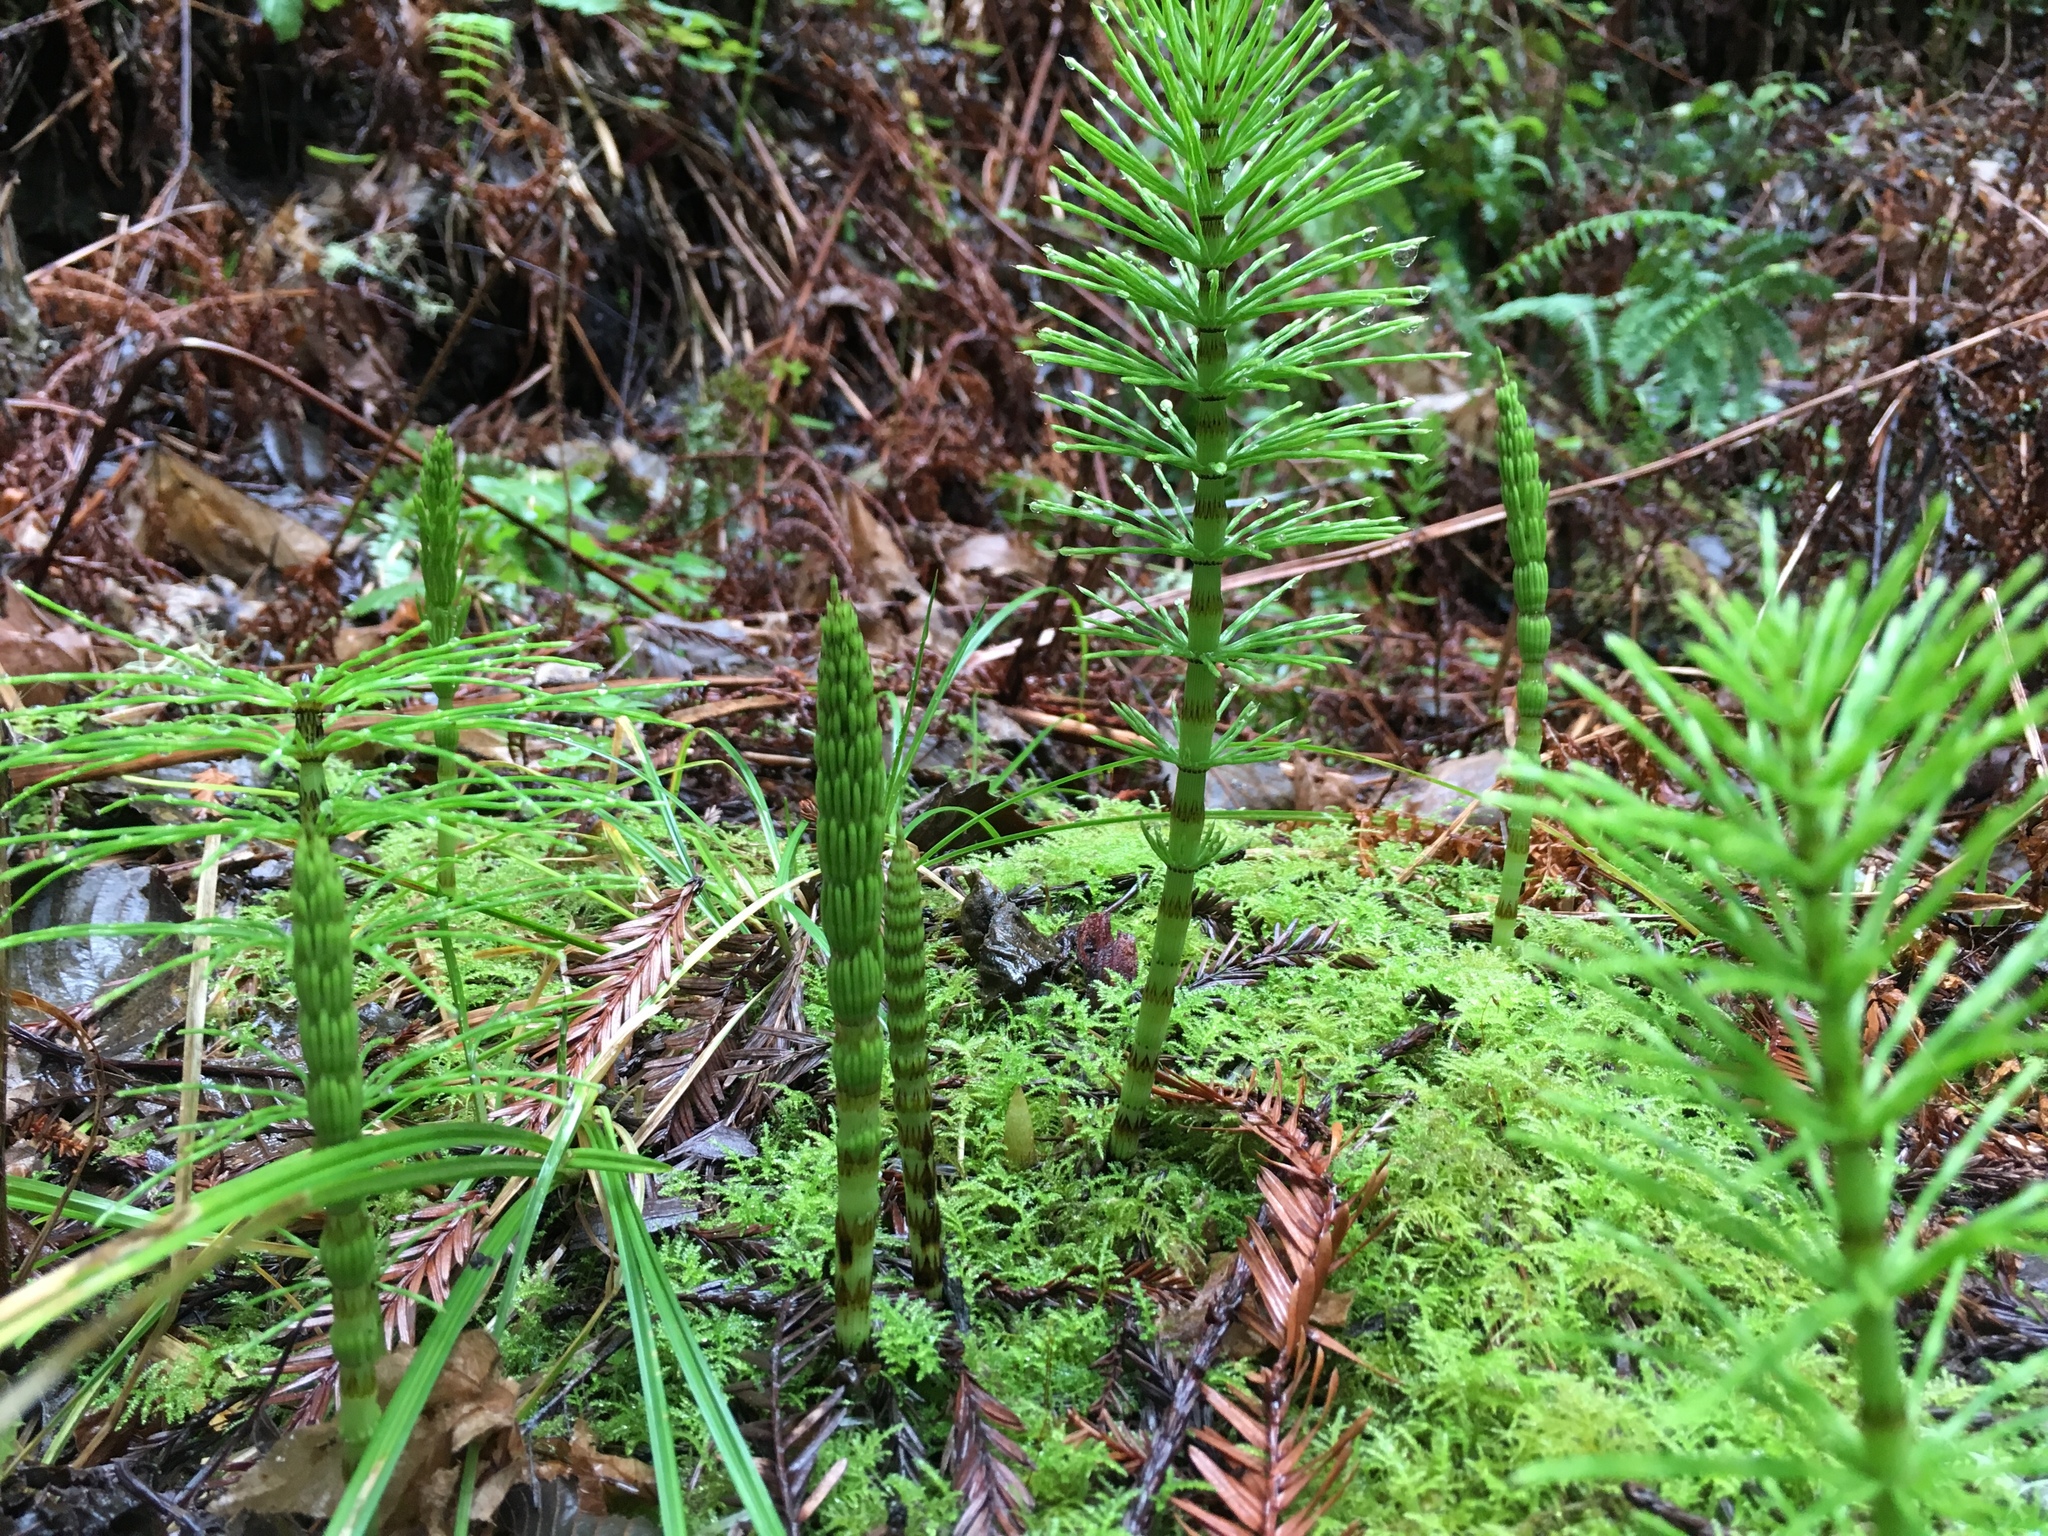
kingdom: Plantae
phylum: Tracheophyta
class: Polypodiopsida
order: Equisetales
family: Equisetaceae
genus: Equisetum
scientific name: Equisetum telmateia
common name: Great horsetail
